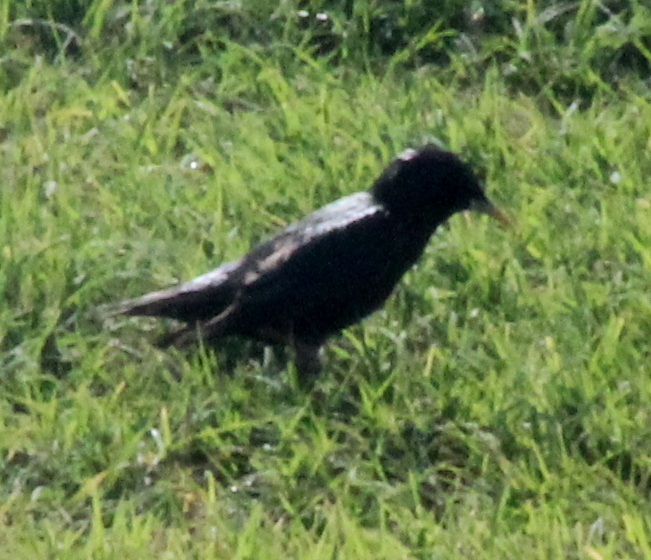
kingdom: Animalia
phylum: Chordata
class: Aves
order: Passeriformes
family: Sturnidae
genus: Sturnus
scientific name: Sturnus vulgaris
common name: Common starling
